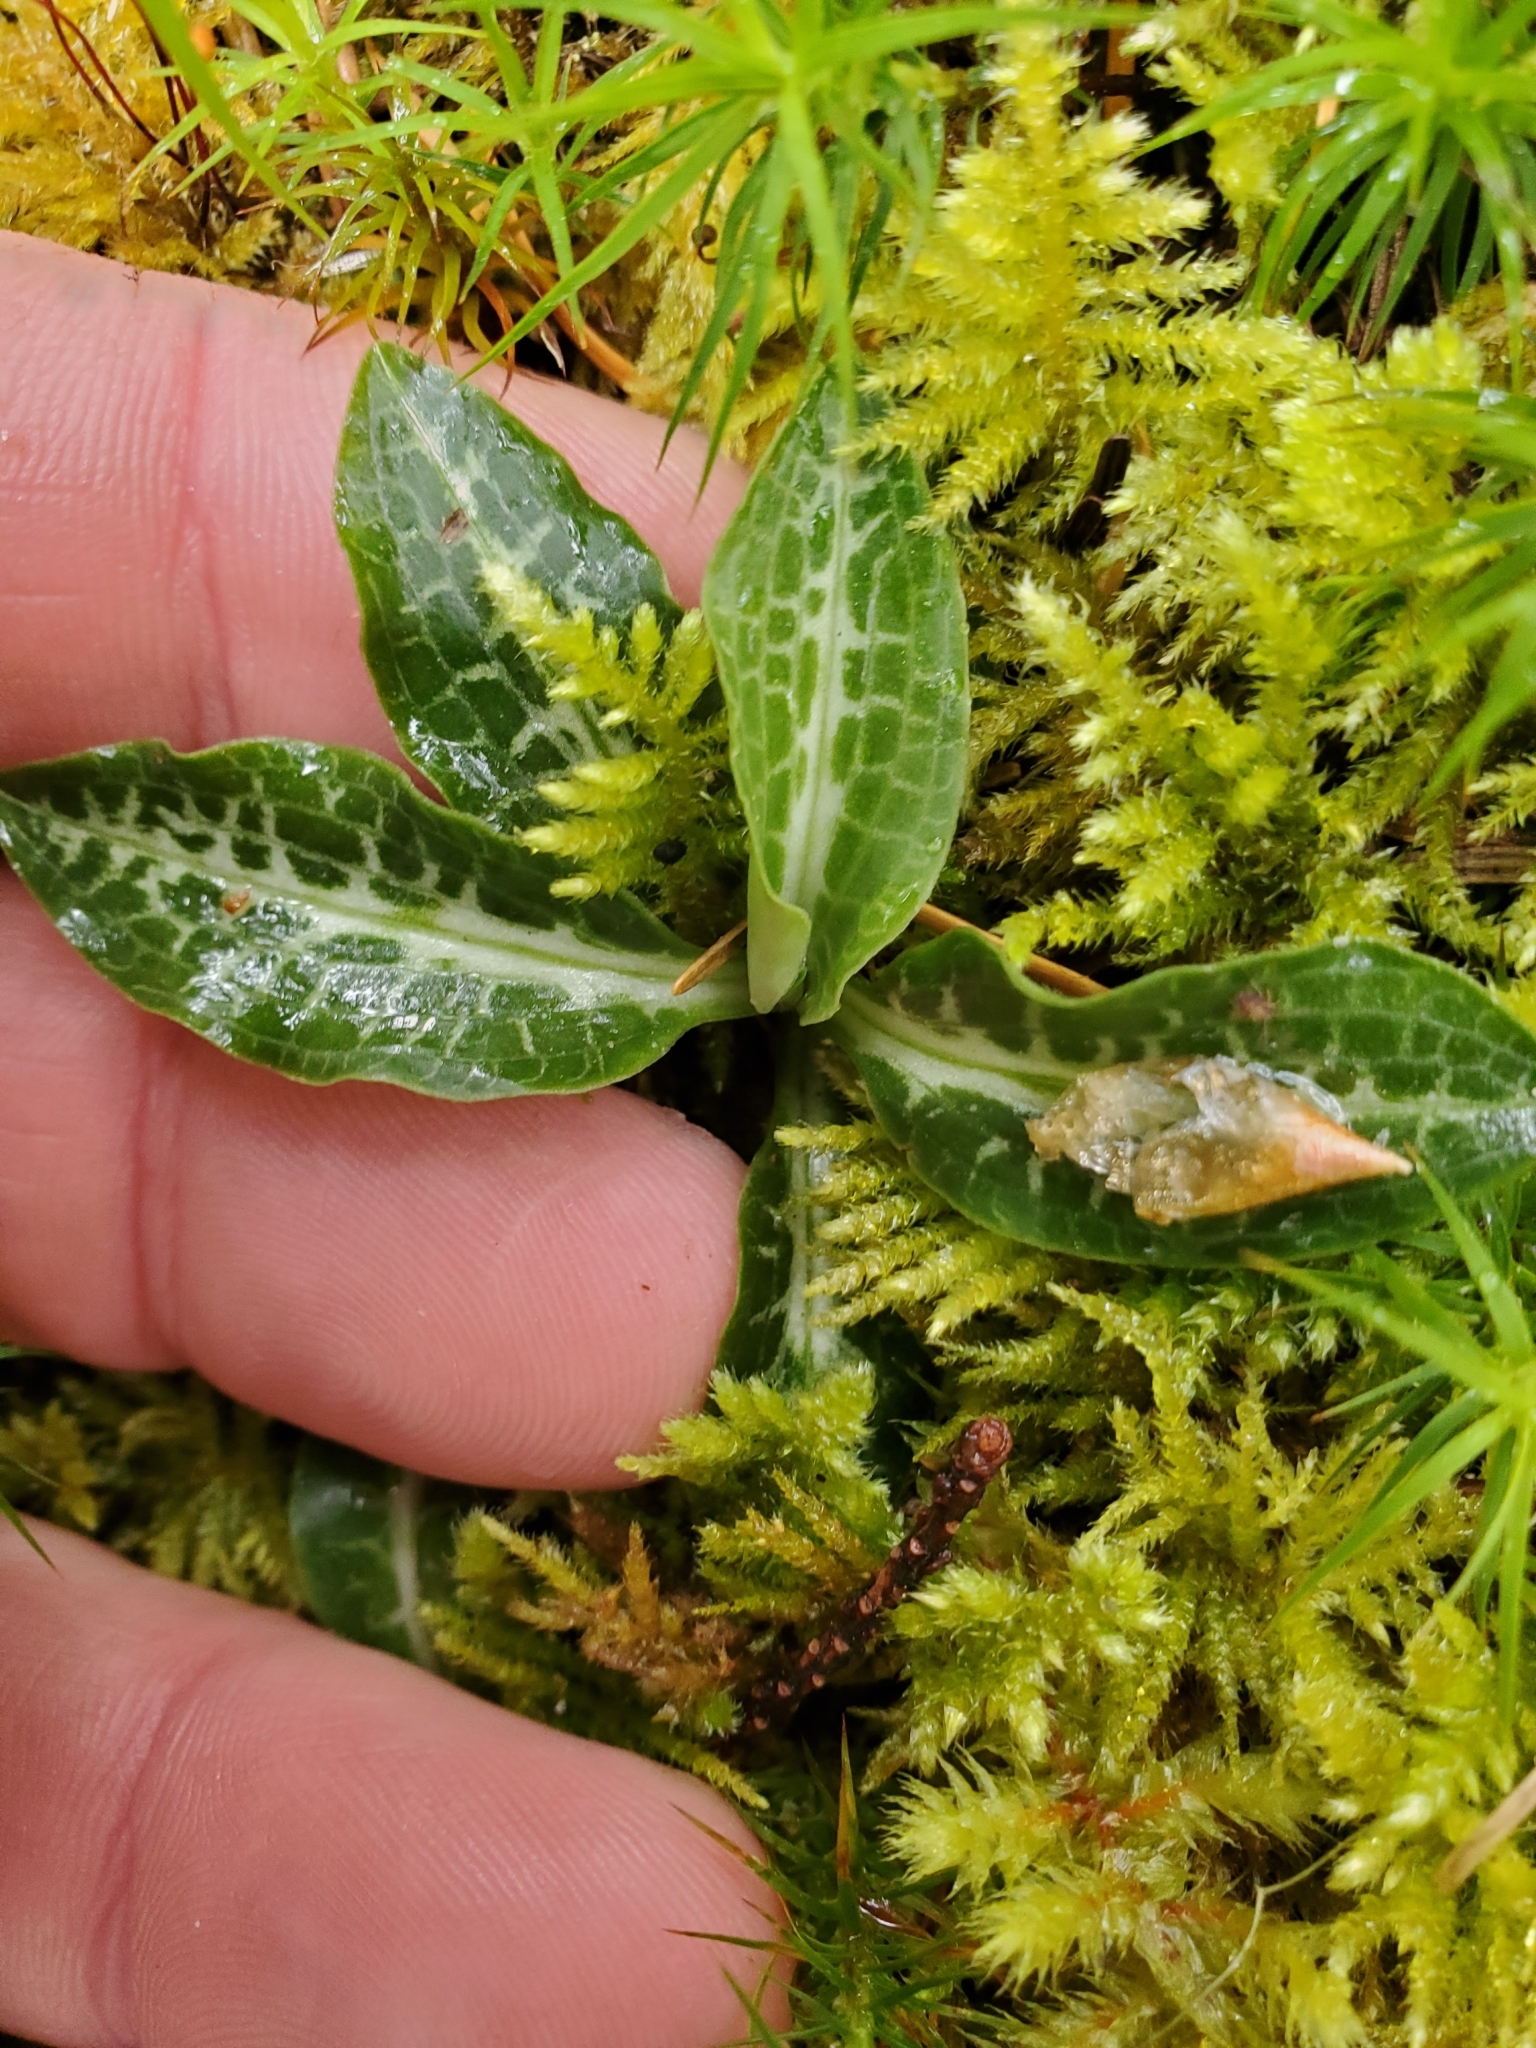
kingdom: Plantae
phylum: Tracheophyta
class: Liliopsida
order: Asparagales
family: Orchidaceae
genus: Goodyera
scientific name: Goodyera oblongifolia
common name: Giant rattlesnake-plantain
